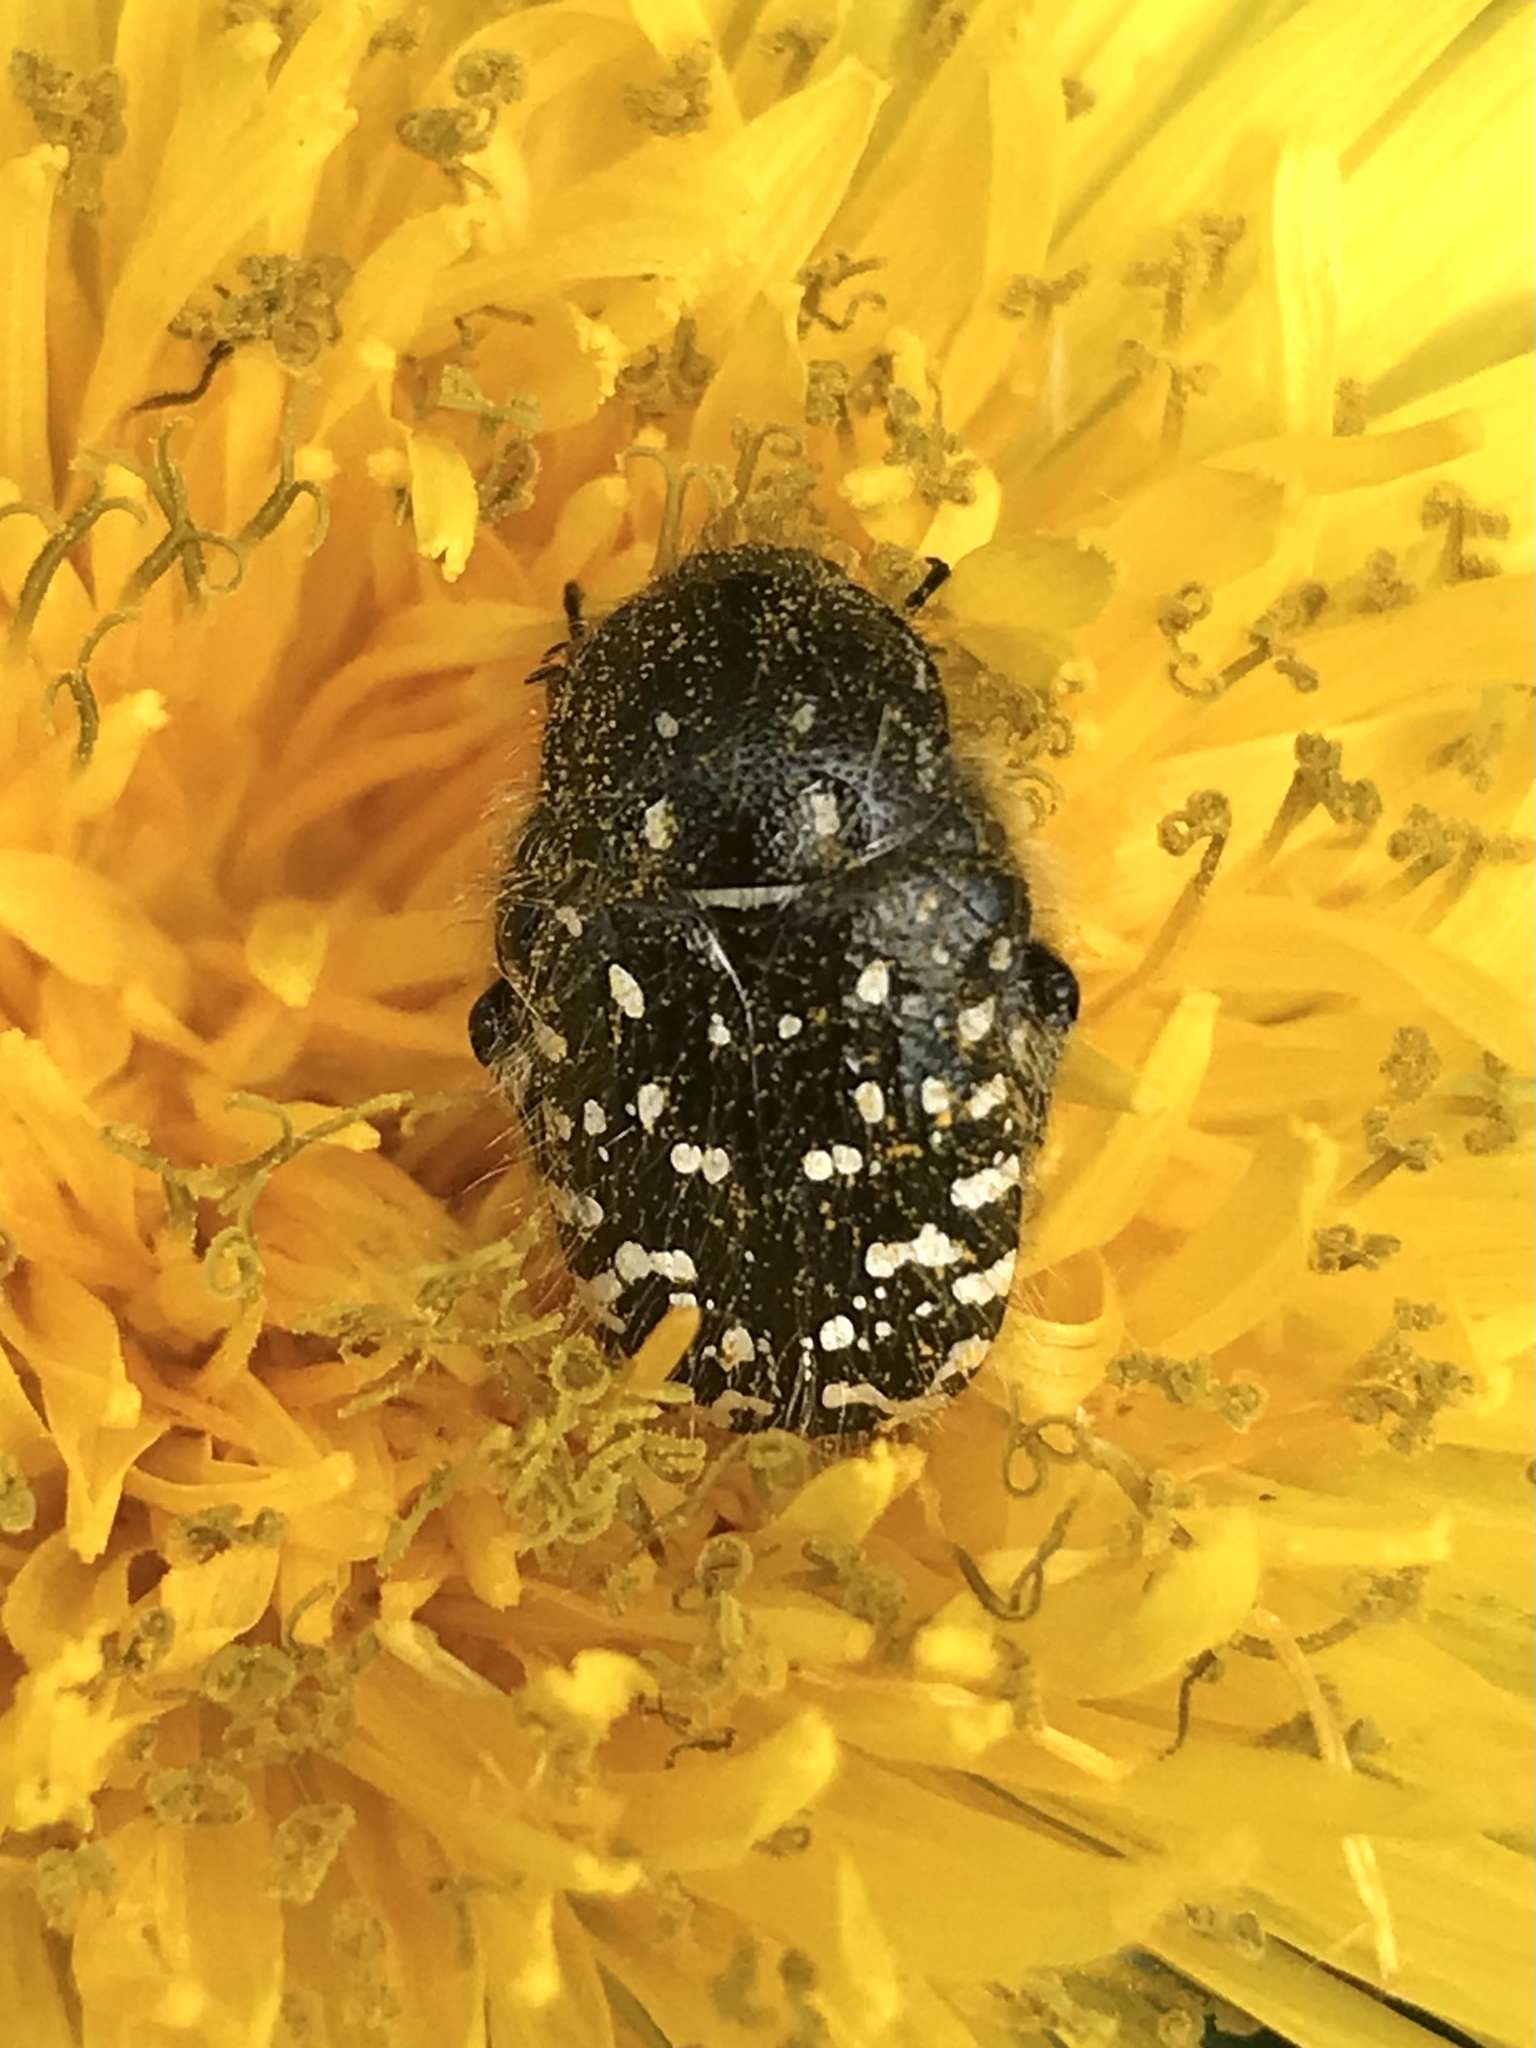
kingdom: Animalia
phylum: Arthropoda
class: Insecta
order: Coleoptera
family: Scarabaeidae
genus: Oxythyrea
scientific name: Oxythyrea funesta
